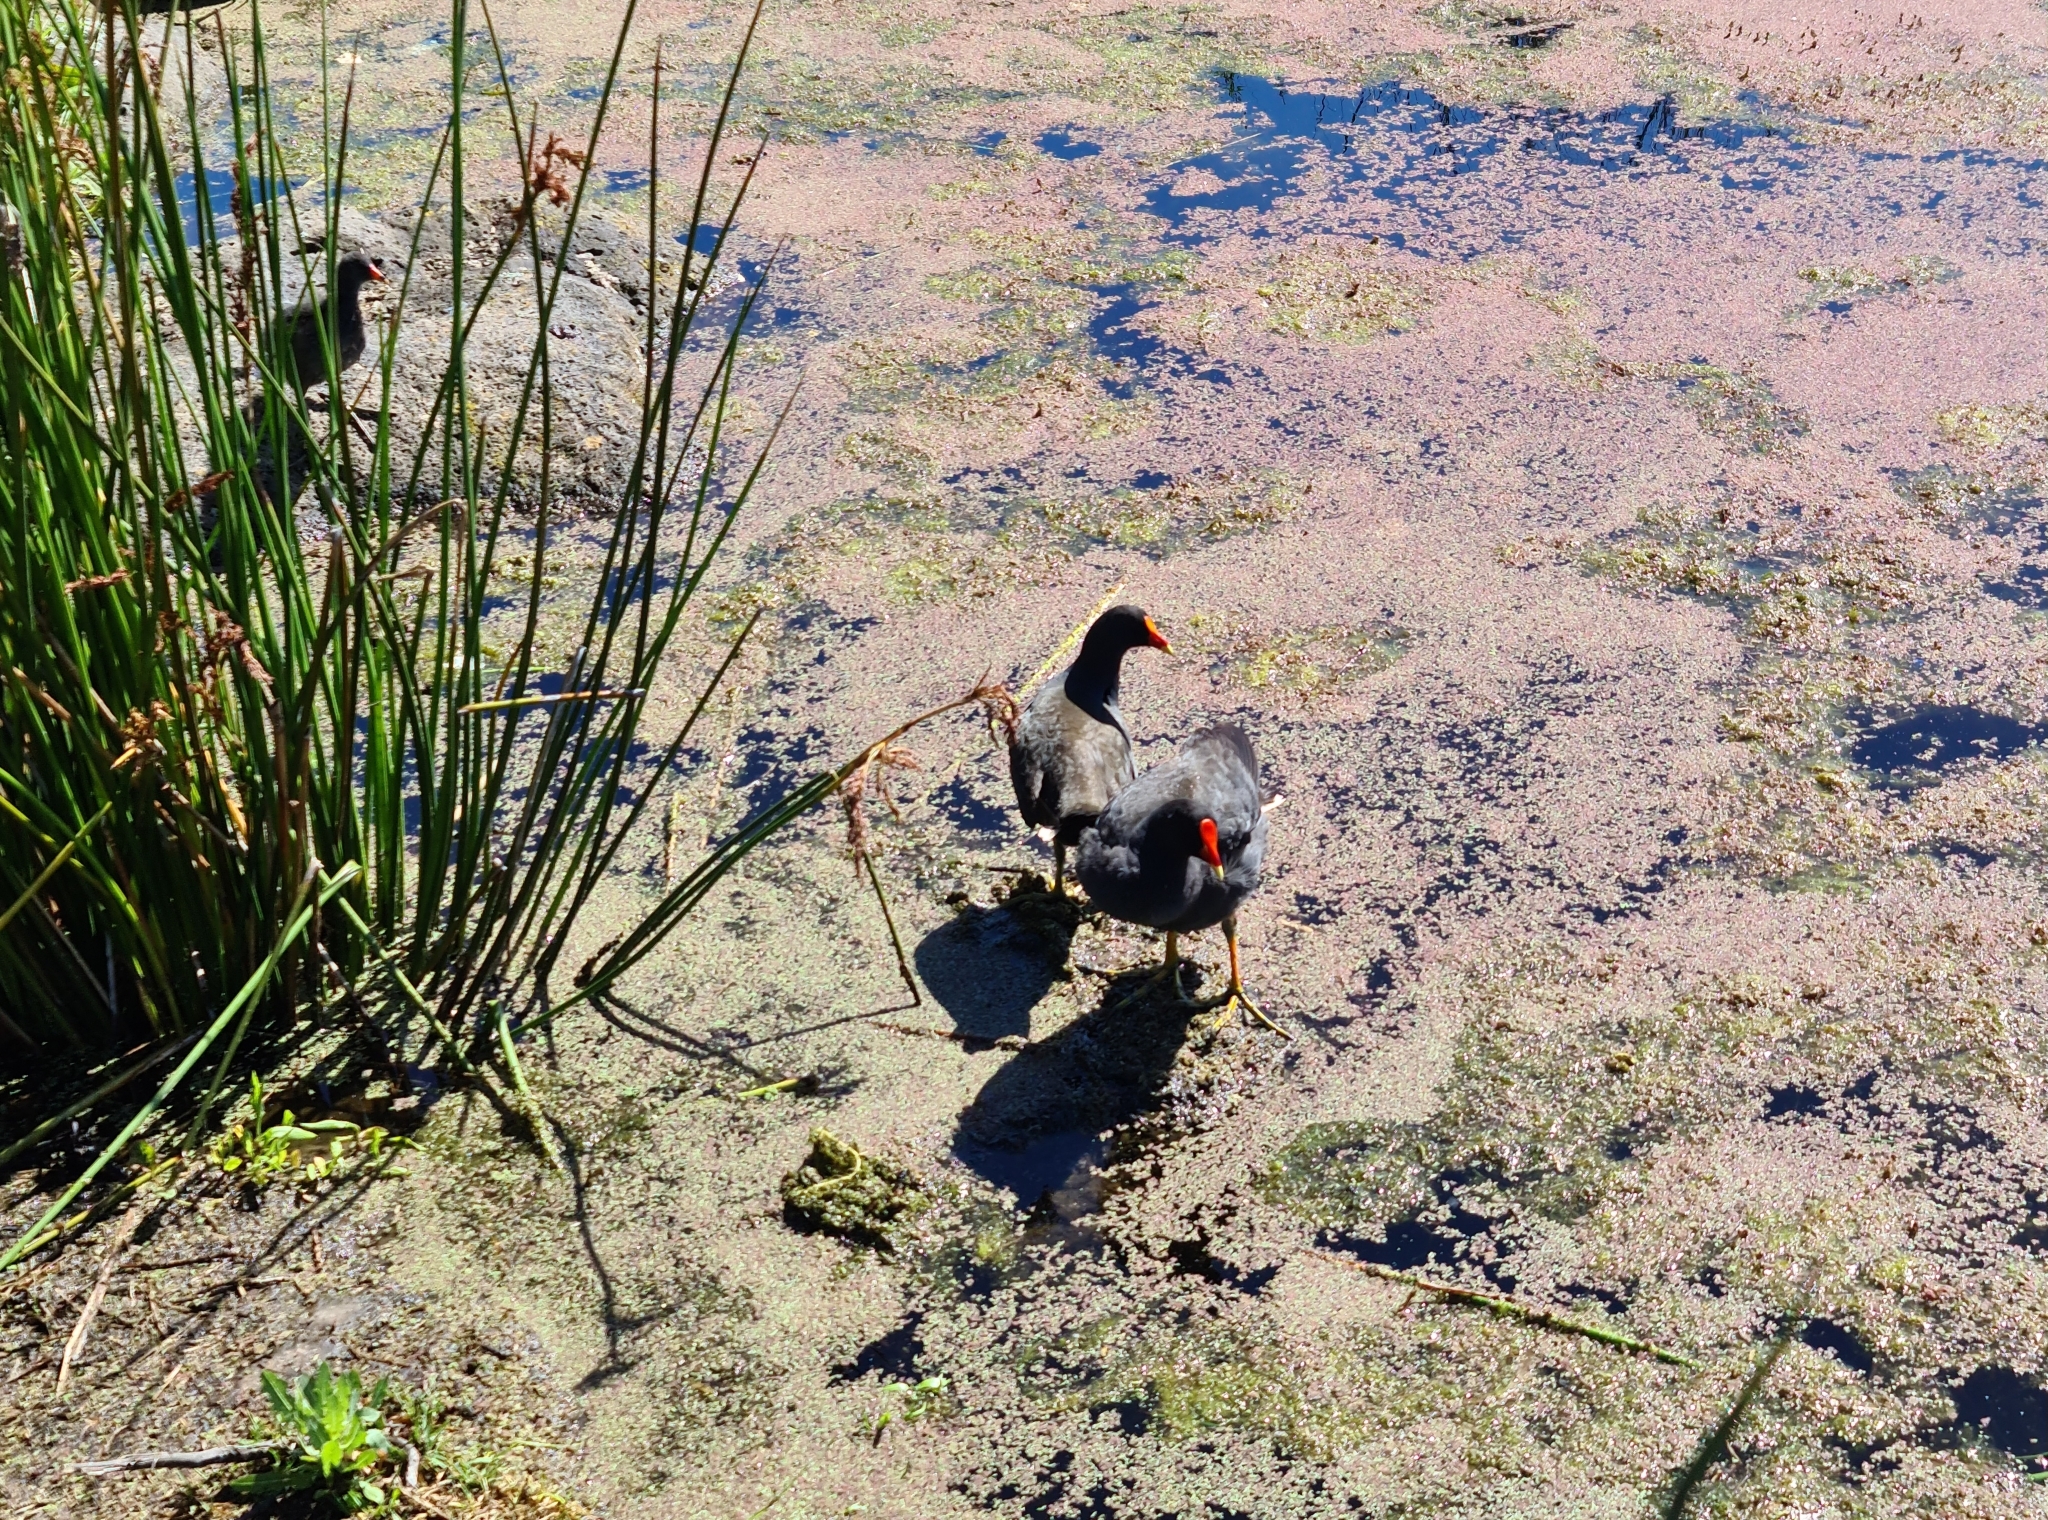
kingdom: Animalia
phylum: Chordata
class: Aves
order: Gruiformes
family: Rallidae
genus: Gallinula
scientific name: Gallinula tenebrosa
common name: Dusky moorhen
